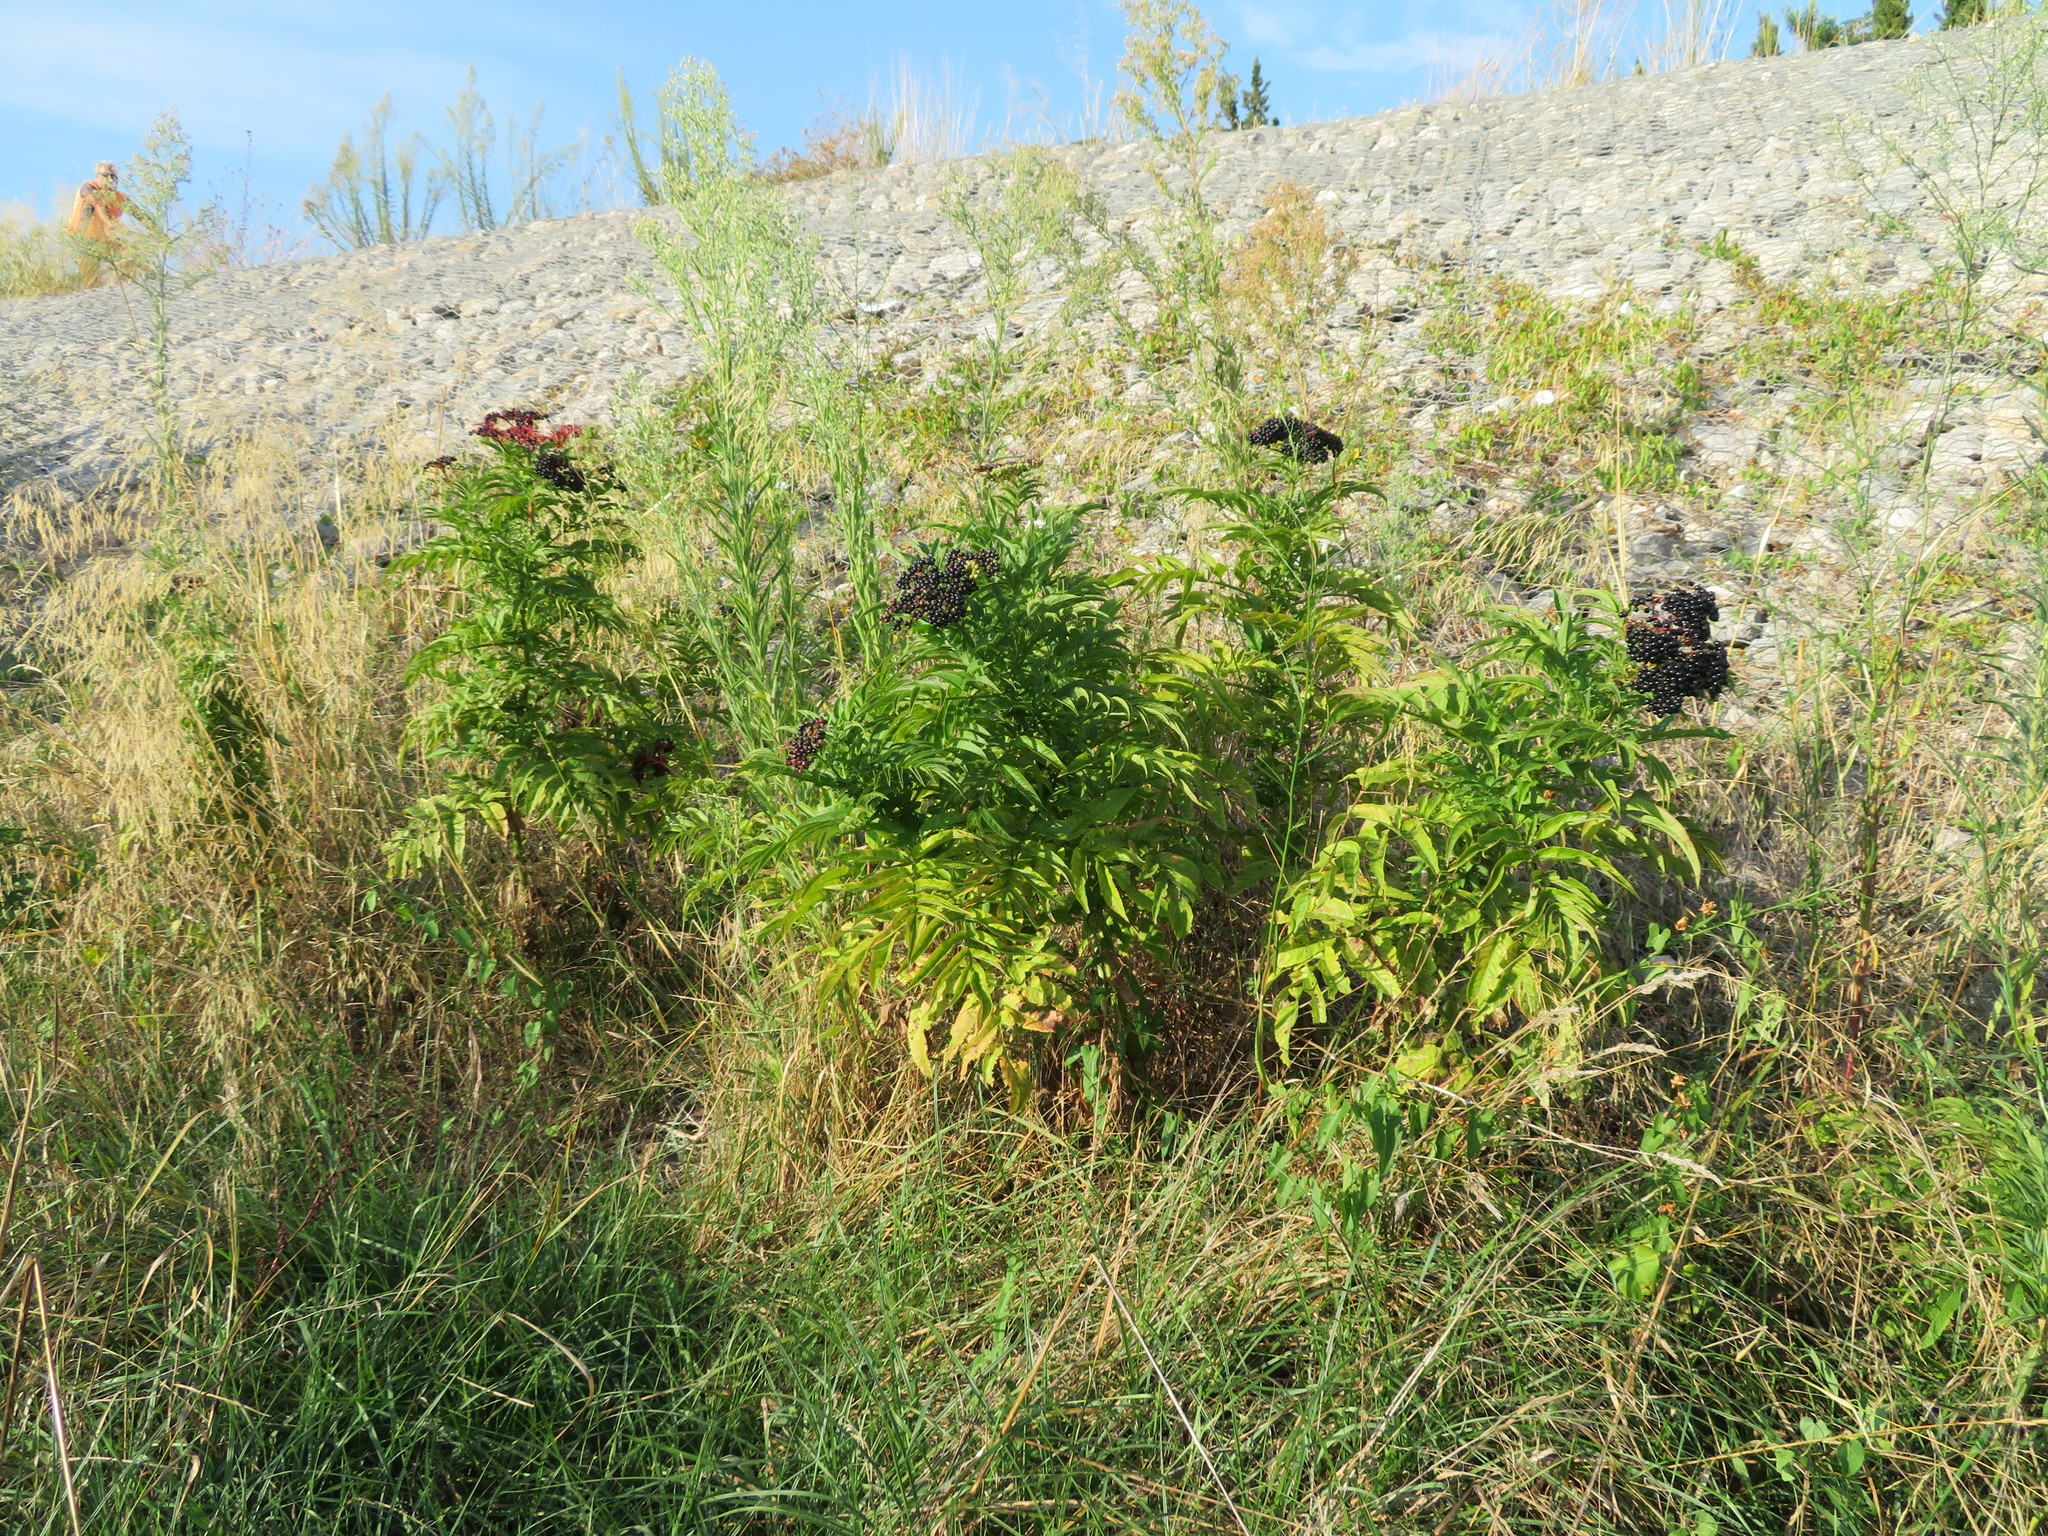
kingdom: Plantae
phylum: Tracheophyta
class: Magnoliopsida
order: Dipsacales
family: Viburnaceae
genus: Sambucus
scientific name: Sambucus ebulus
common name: Dwarf elder
